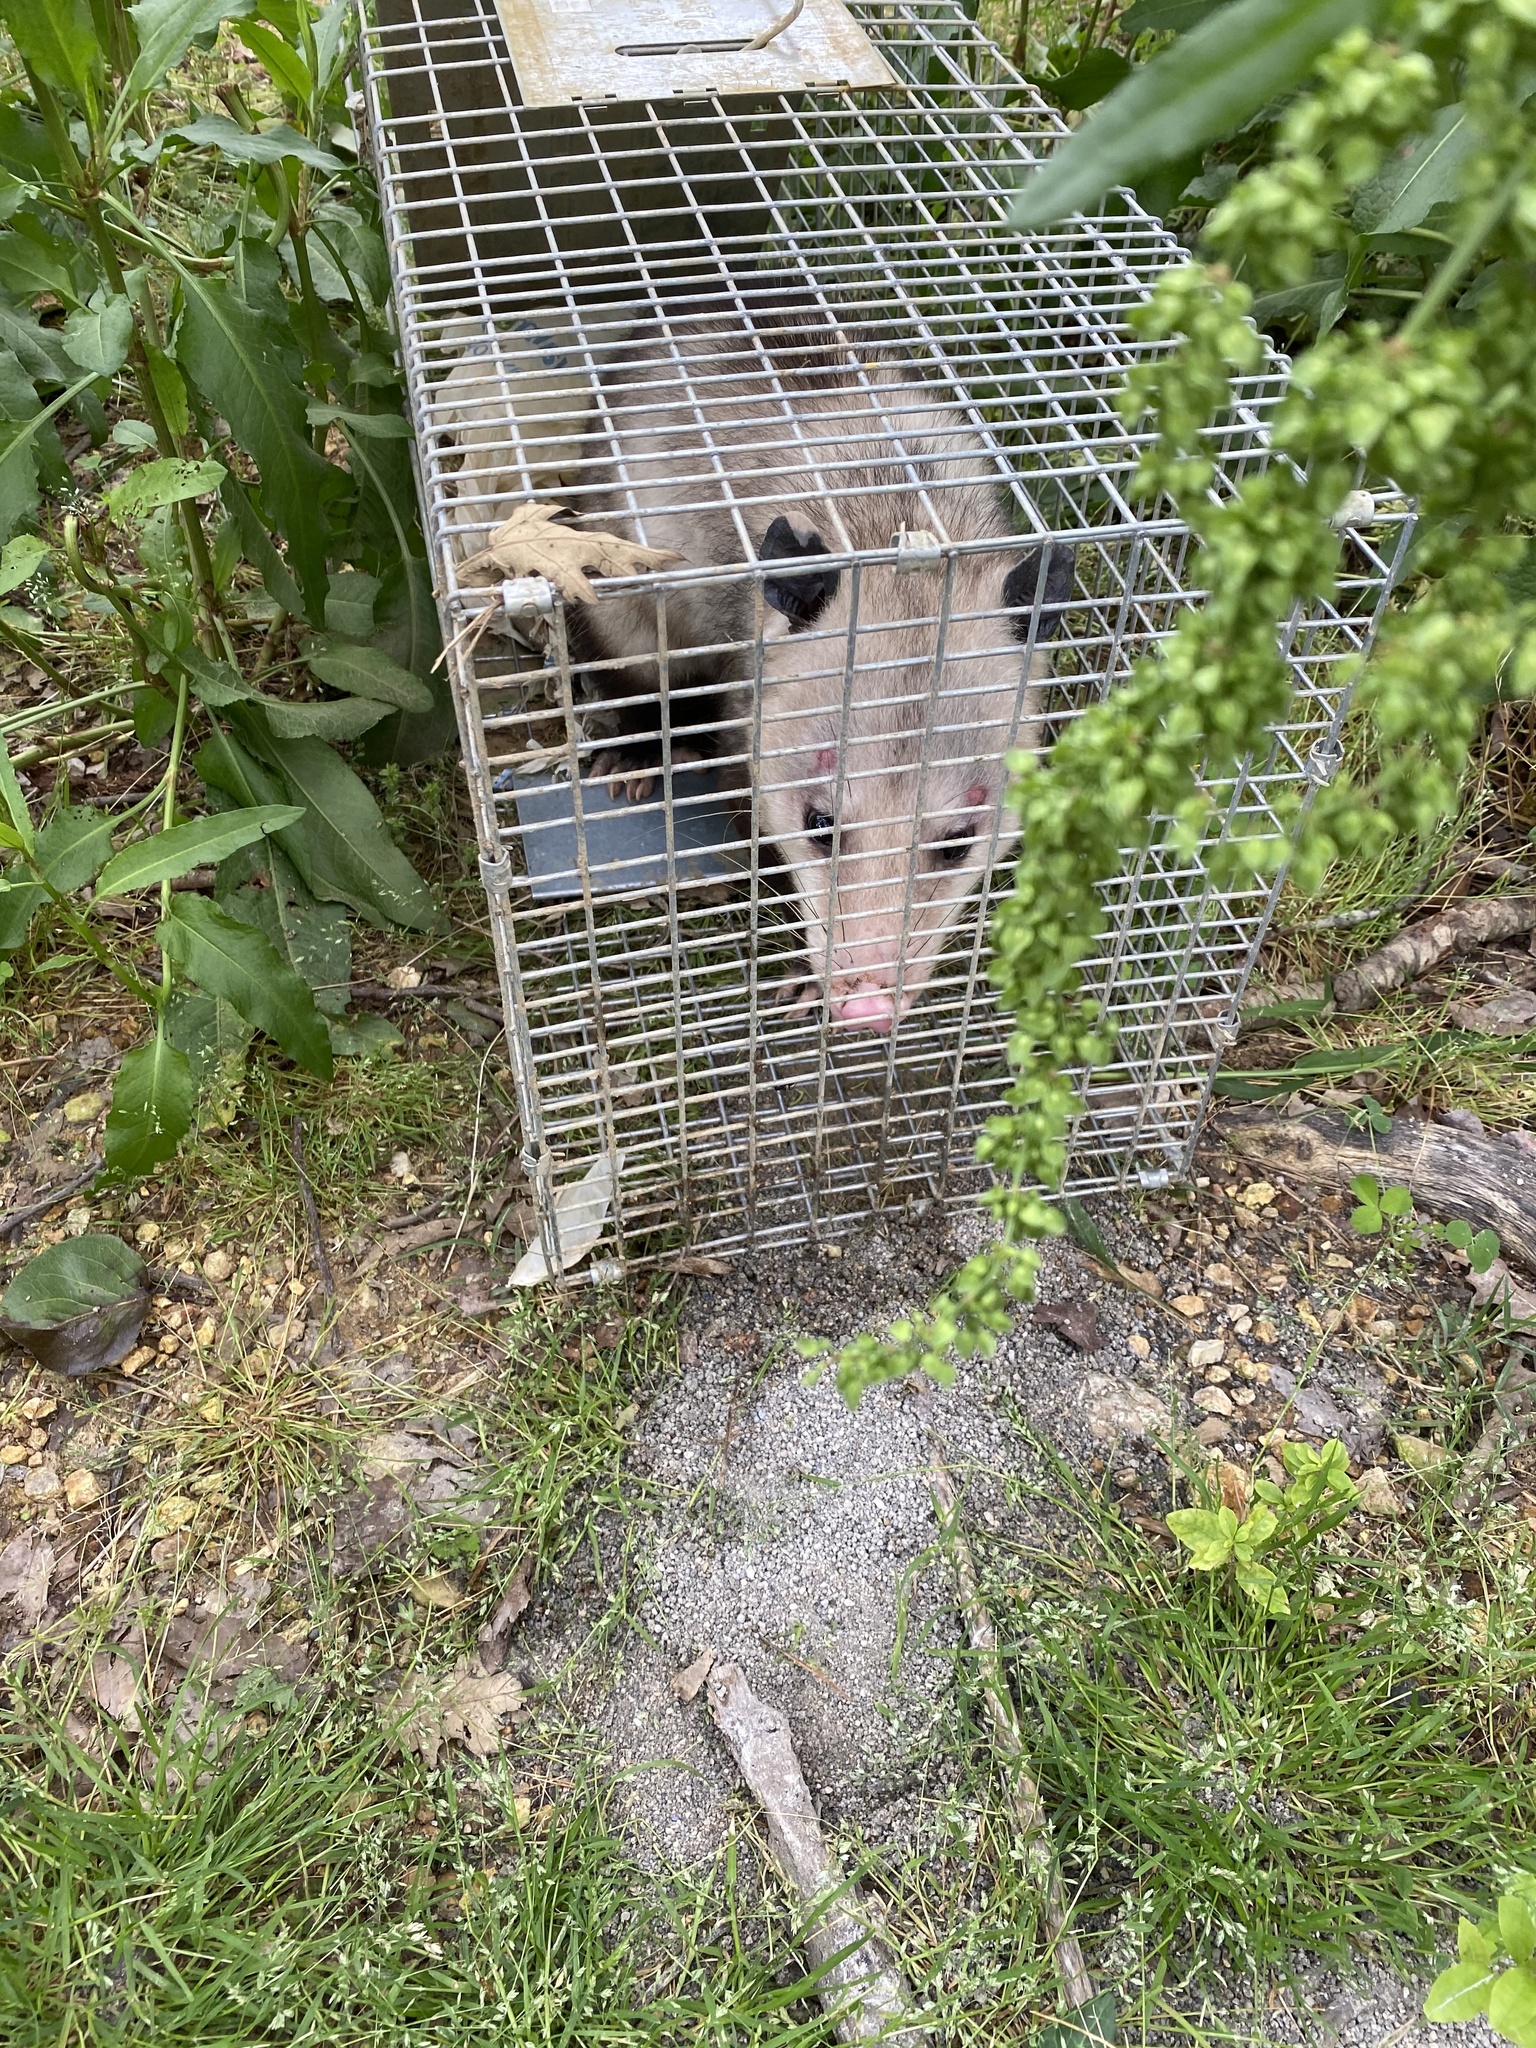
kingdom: Animalia
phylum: Chordata
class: Mammalia
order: Didelphimorphia
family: Didelphidae
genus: Didelphis
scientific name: Didelphis virginiana
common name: Virginia opossum
